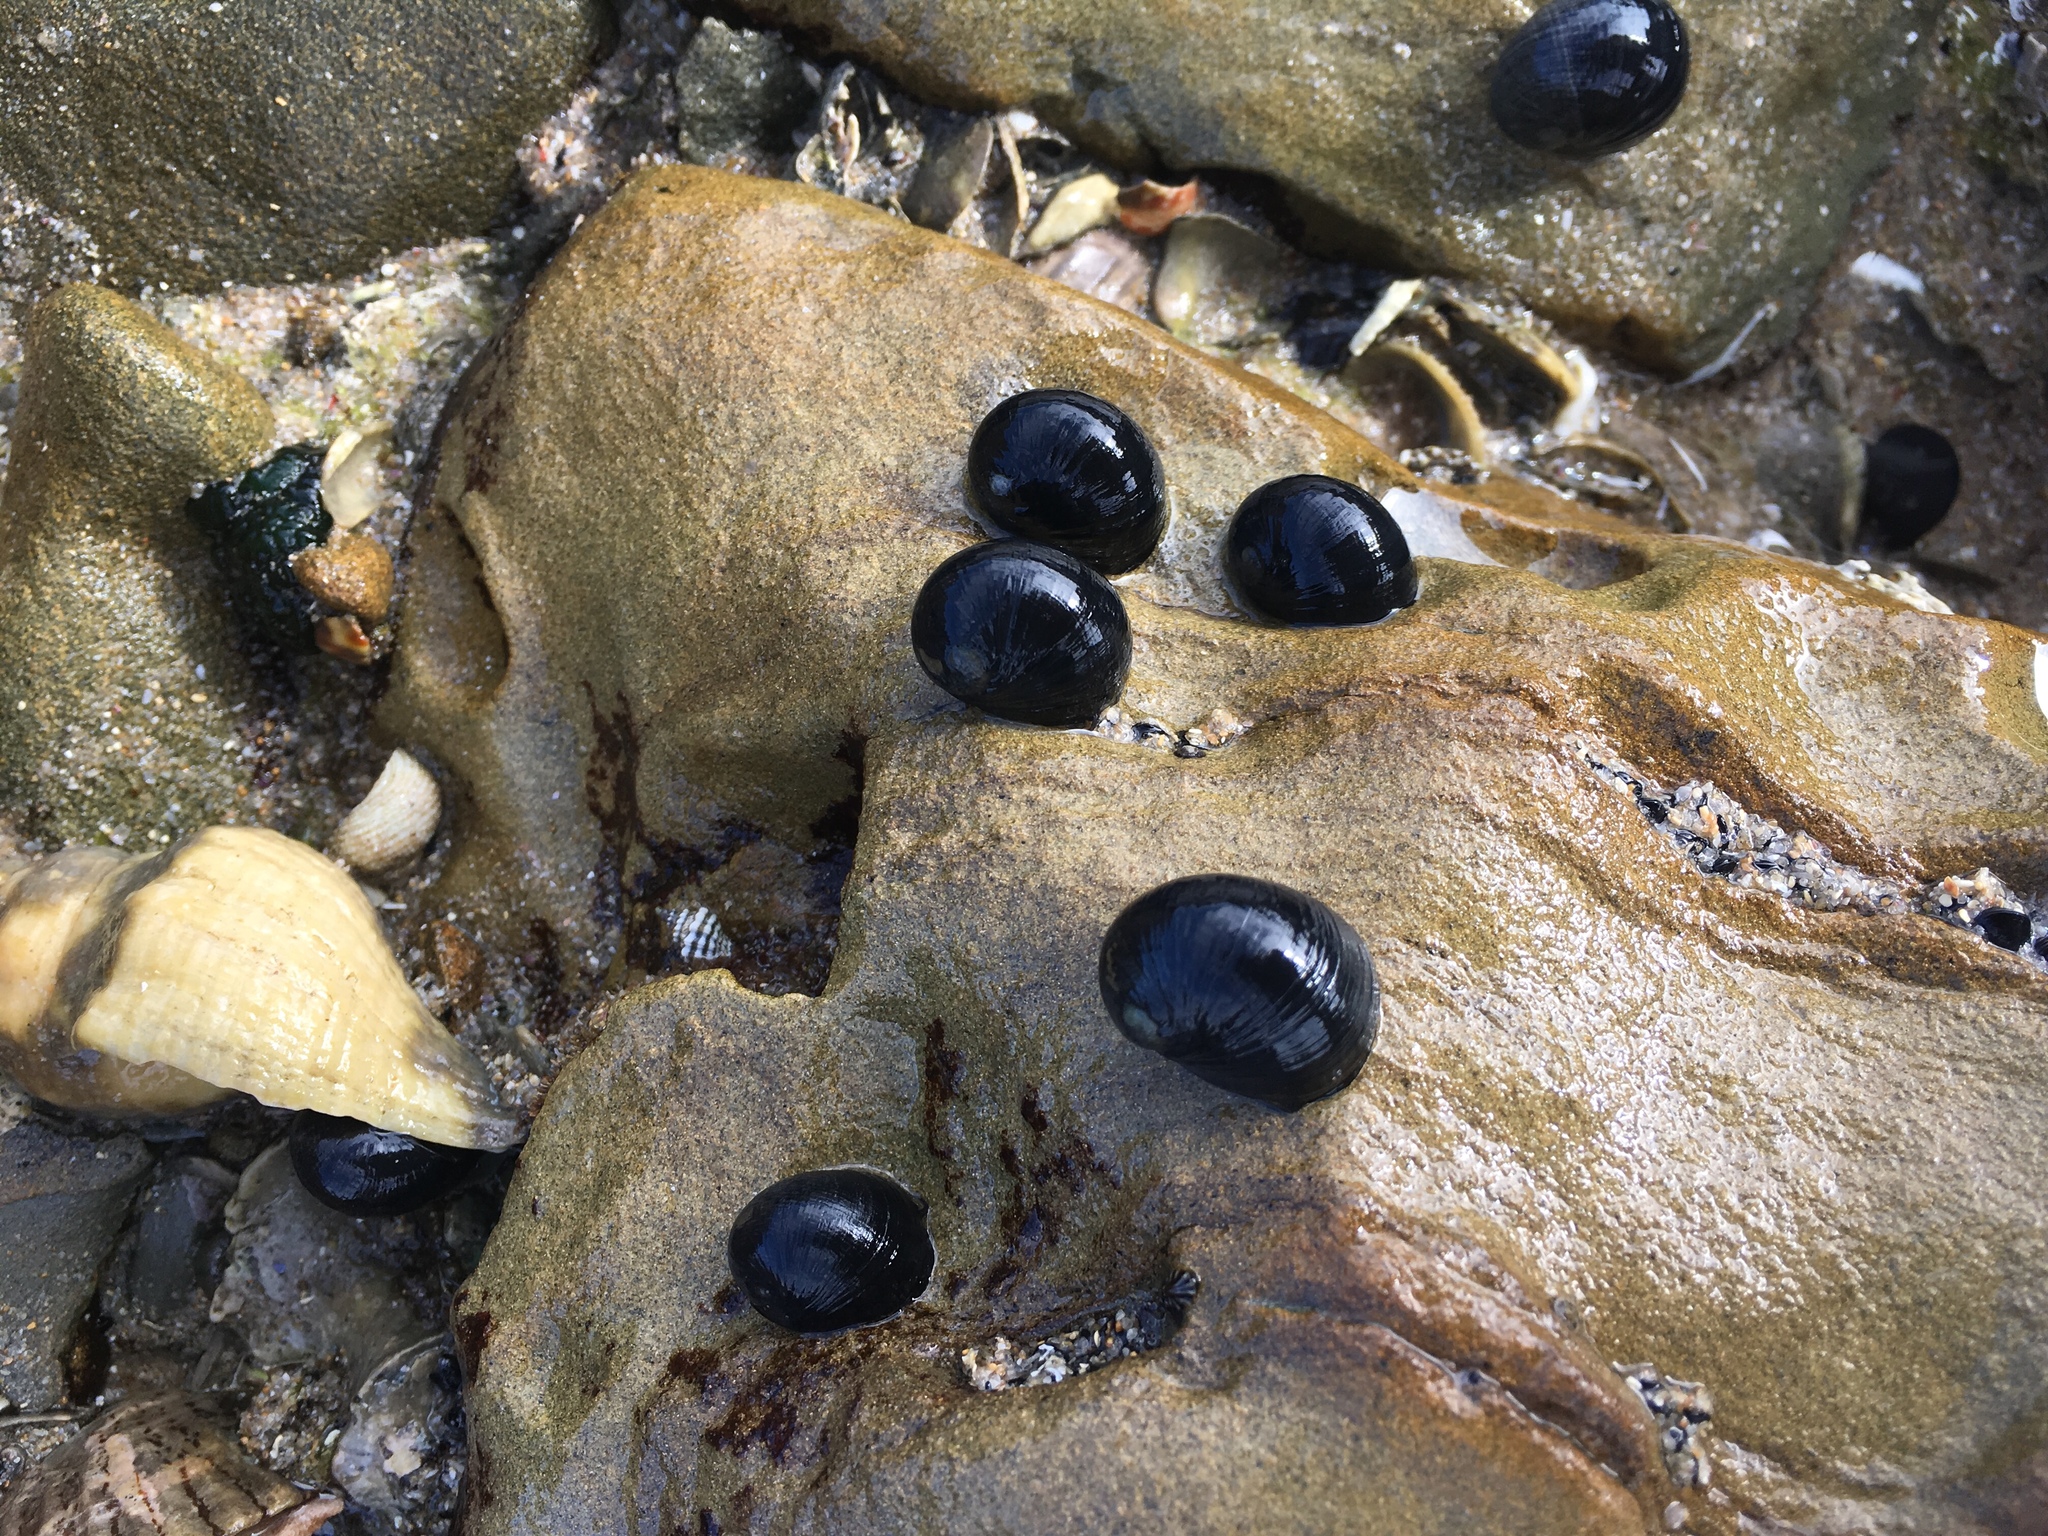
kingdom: Animalia
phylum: Mollusca
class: Gastropoda
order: Cycloneritida
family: Neritidae
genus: Nerita
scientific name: Nerita atramentosa
